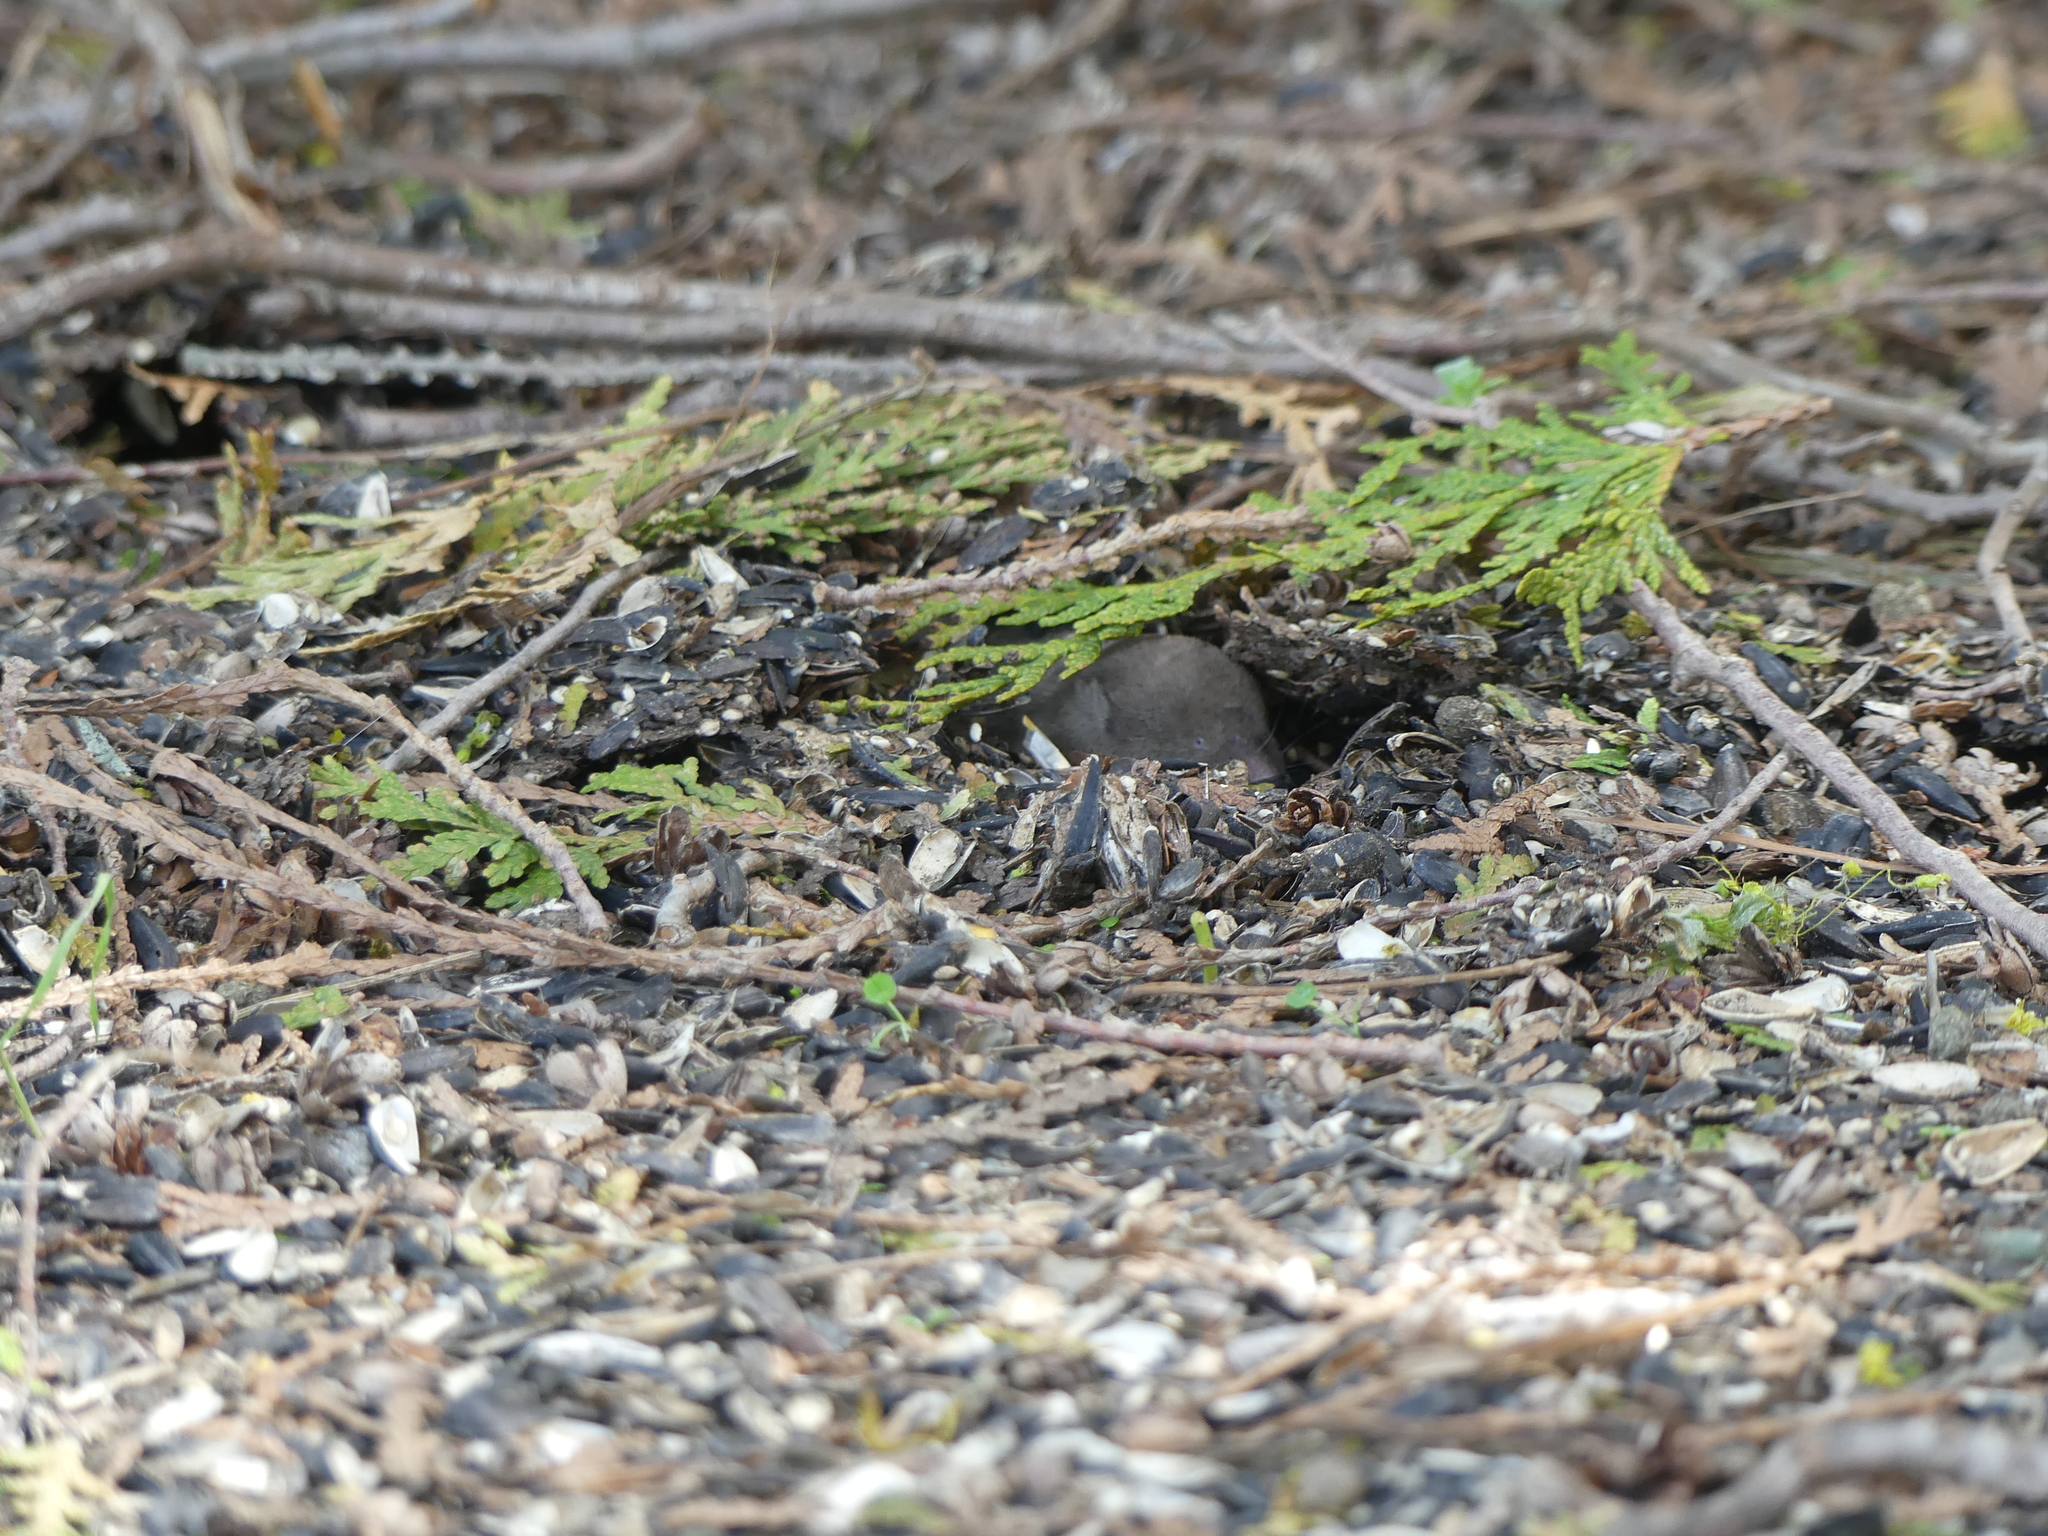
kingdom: Animalia
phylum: Chordata
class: Mammalia
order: Soricomorpha
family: Soricidae
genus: Blarina
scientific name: Blarina brevicauda
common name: Northern short-tailed shrew
